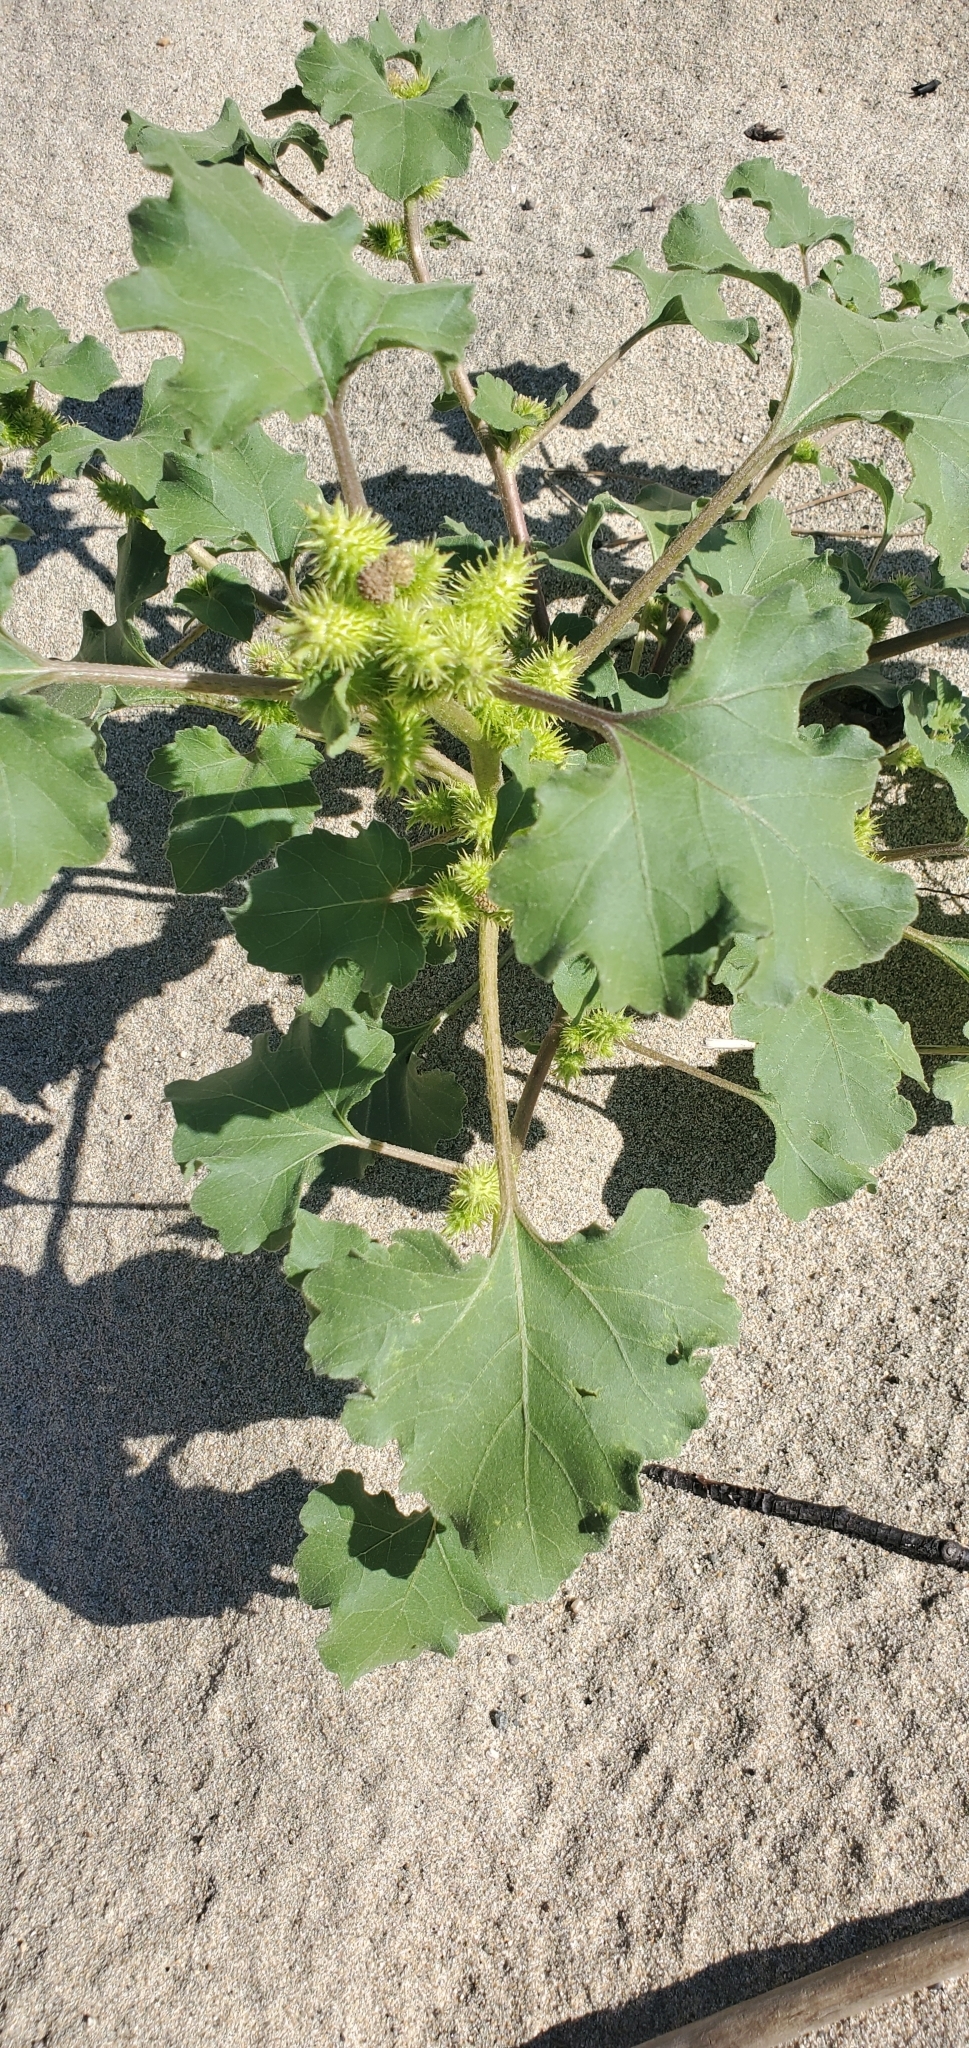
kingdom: Plantae
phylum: Tracheophyta
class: Magnoliopsida
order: Asterales
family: Asteraceae
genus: Xanthium
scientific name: Xanthium strumarium
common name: Rough cocklebur
